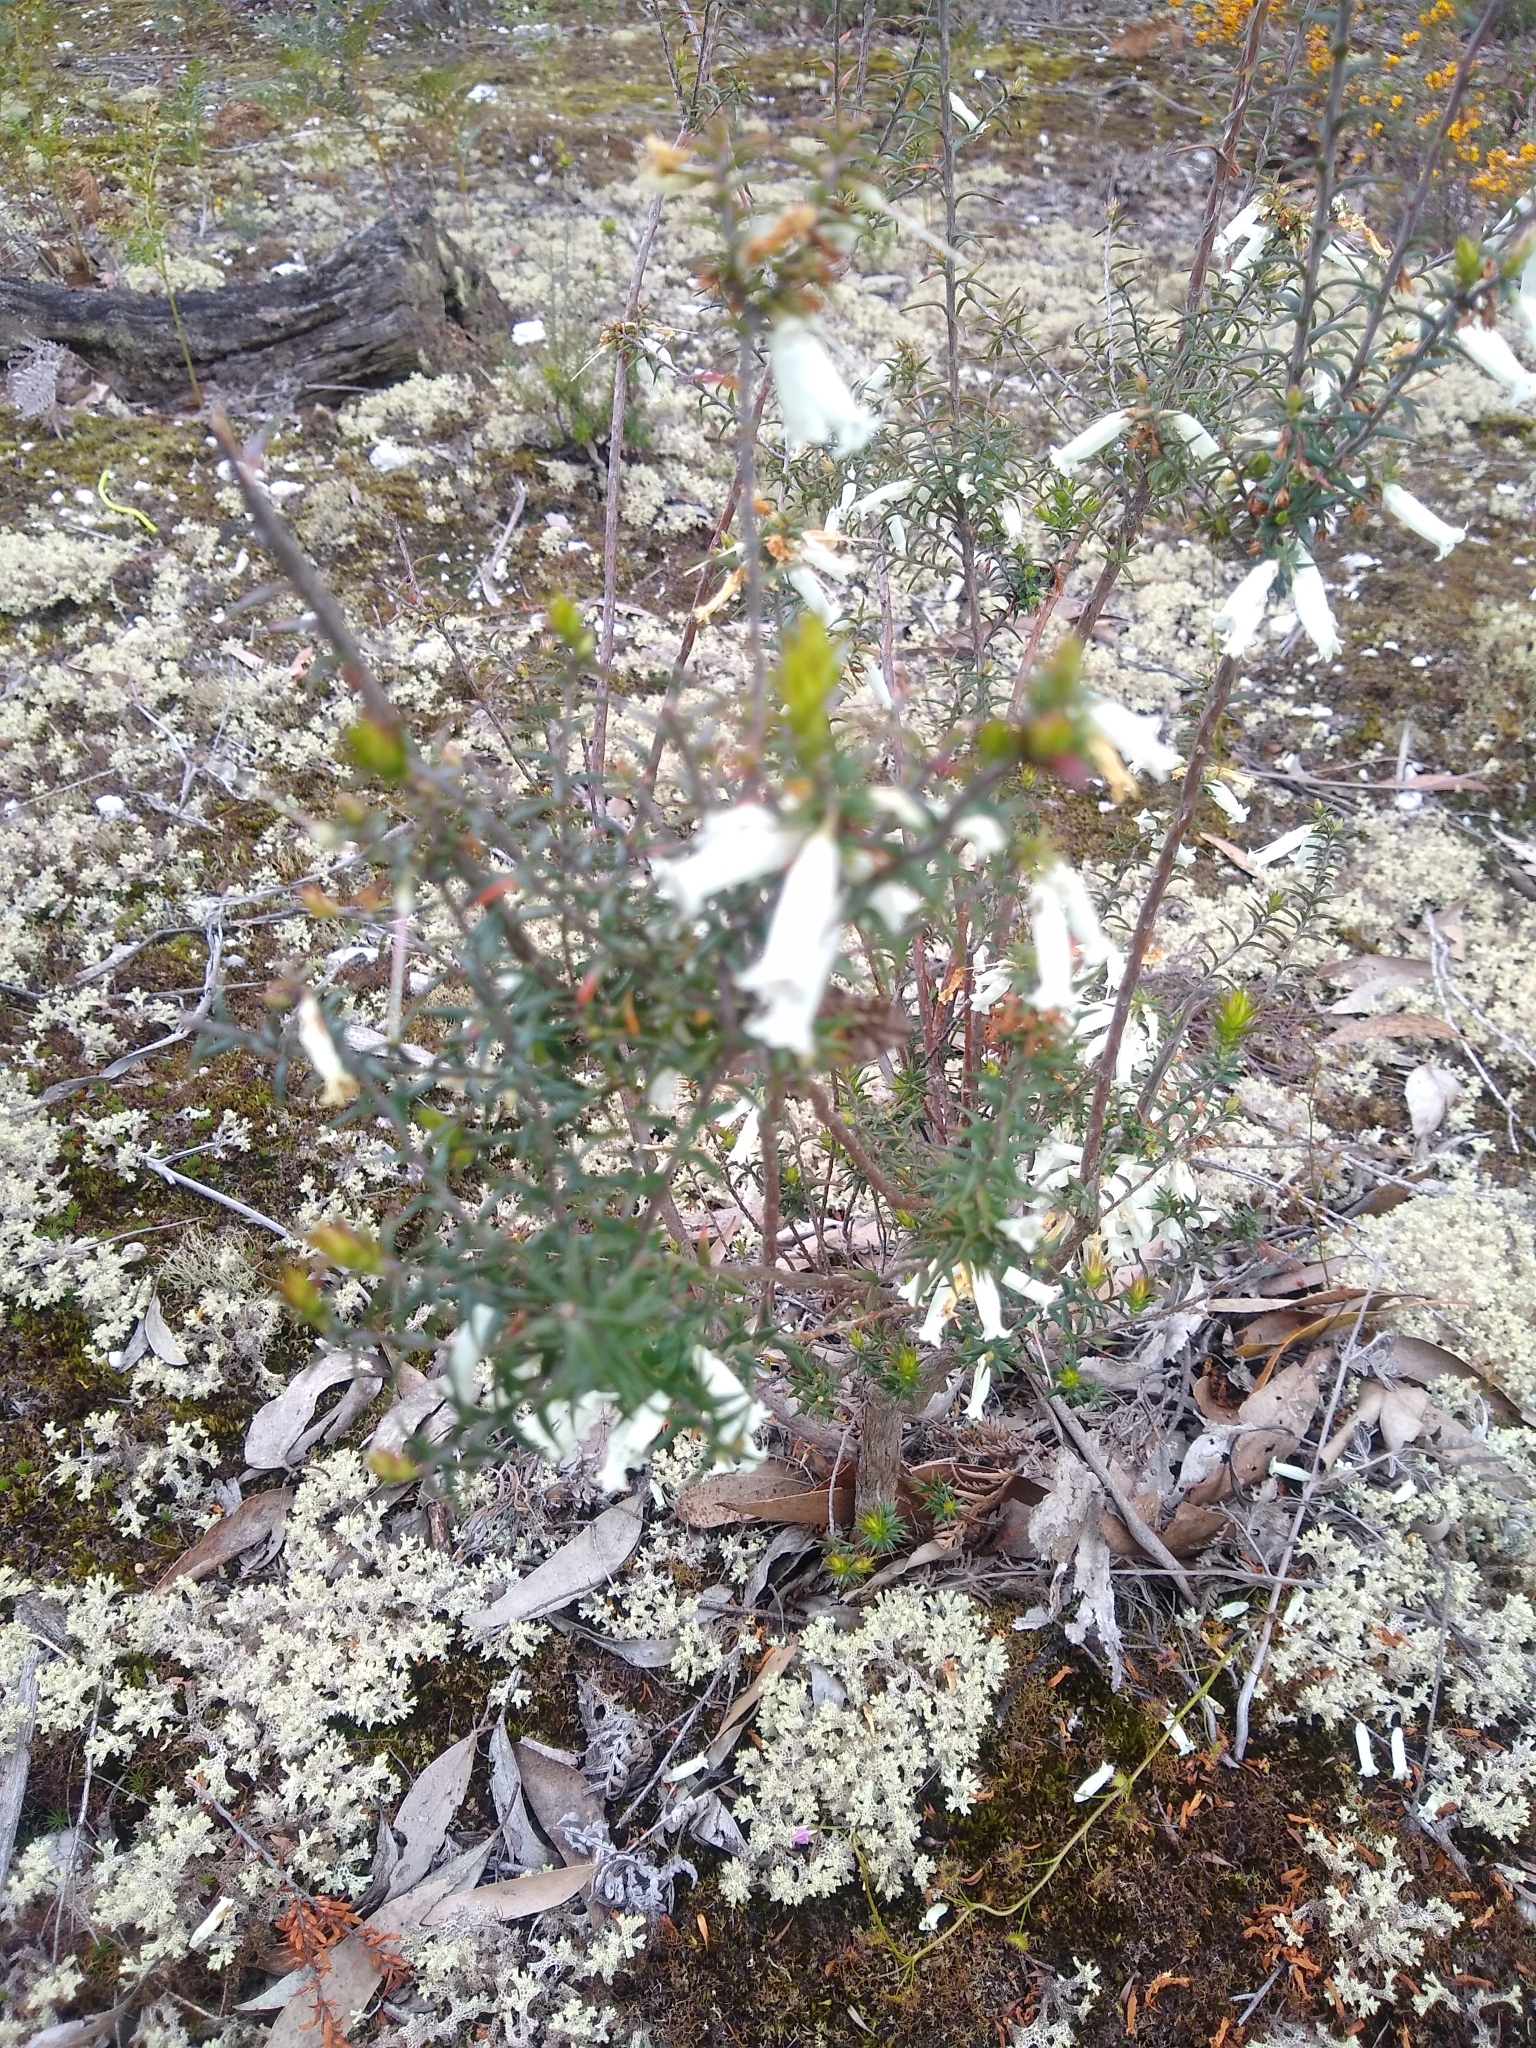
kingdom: Plantae
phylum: Tracheophyta
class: Magnoliopsida
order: Ericales
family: Ericaceae
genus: Epacris
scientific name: Epacris impressa
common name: Common-heath
